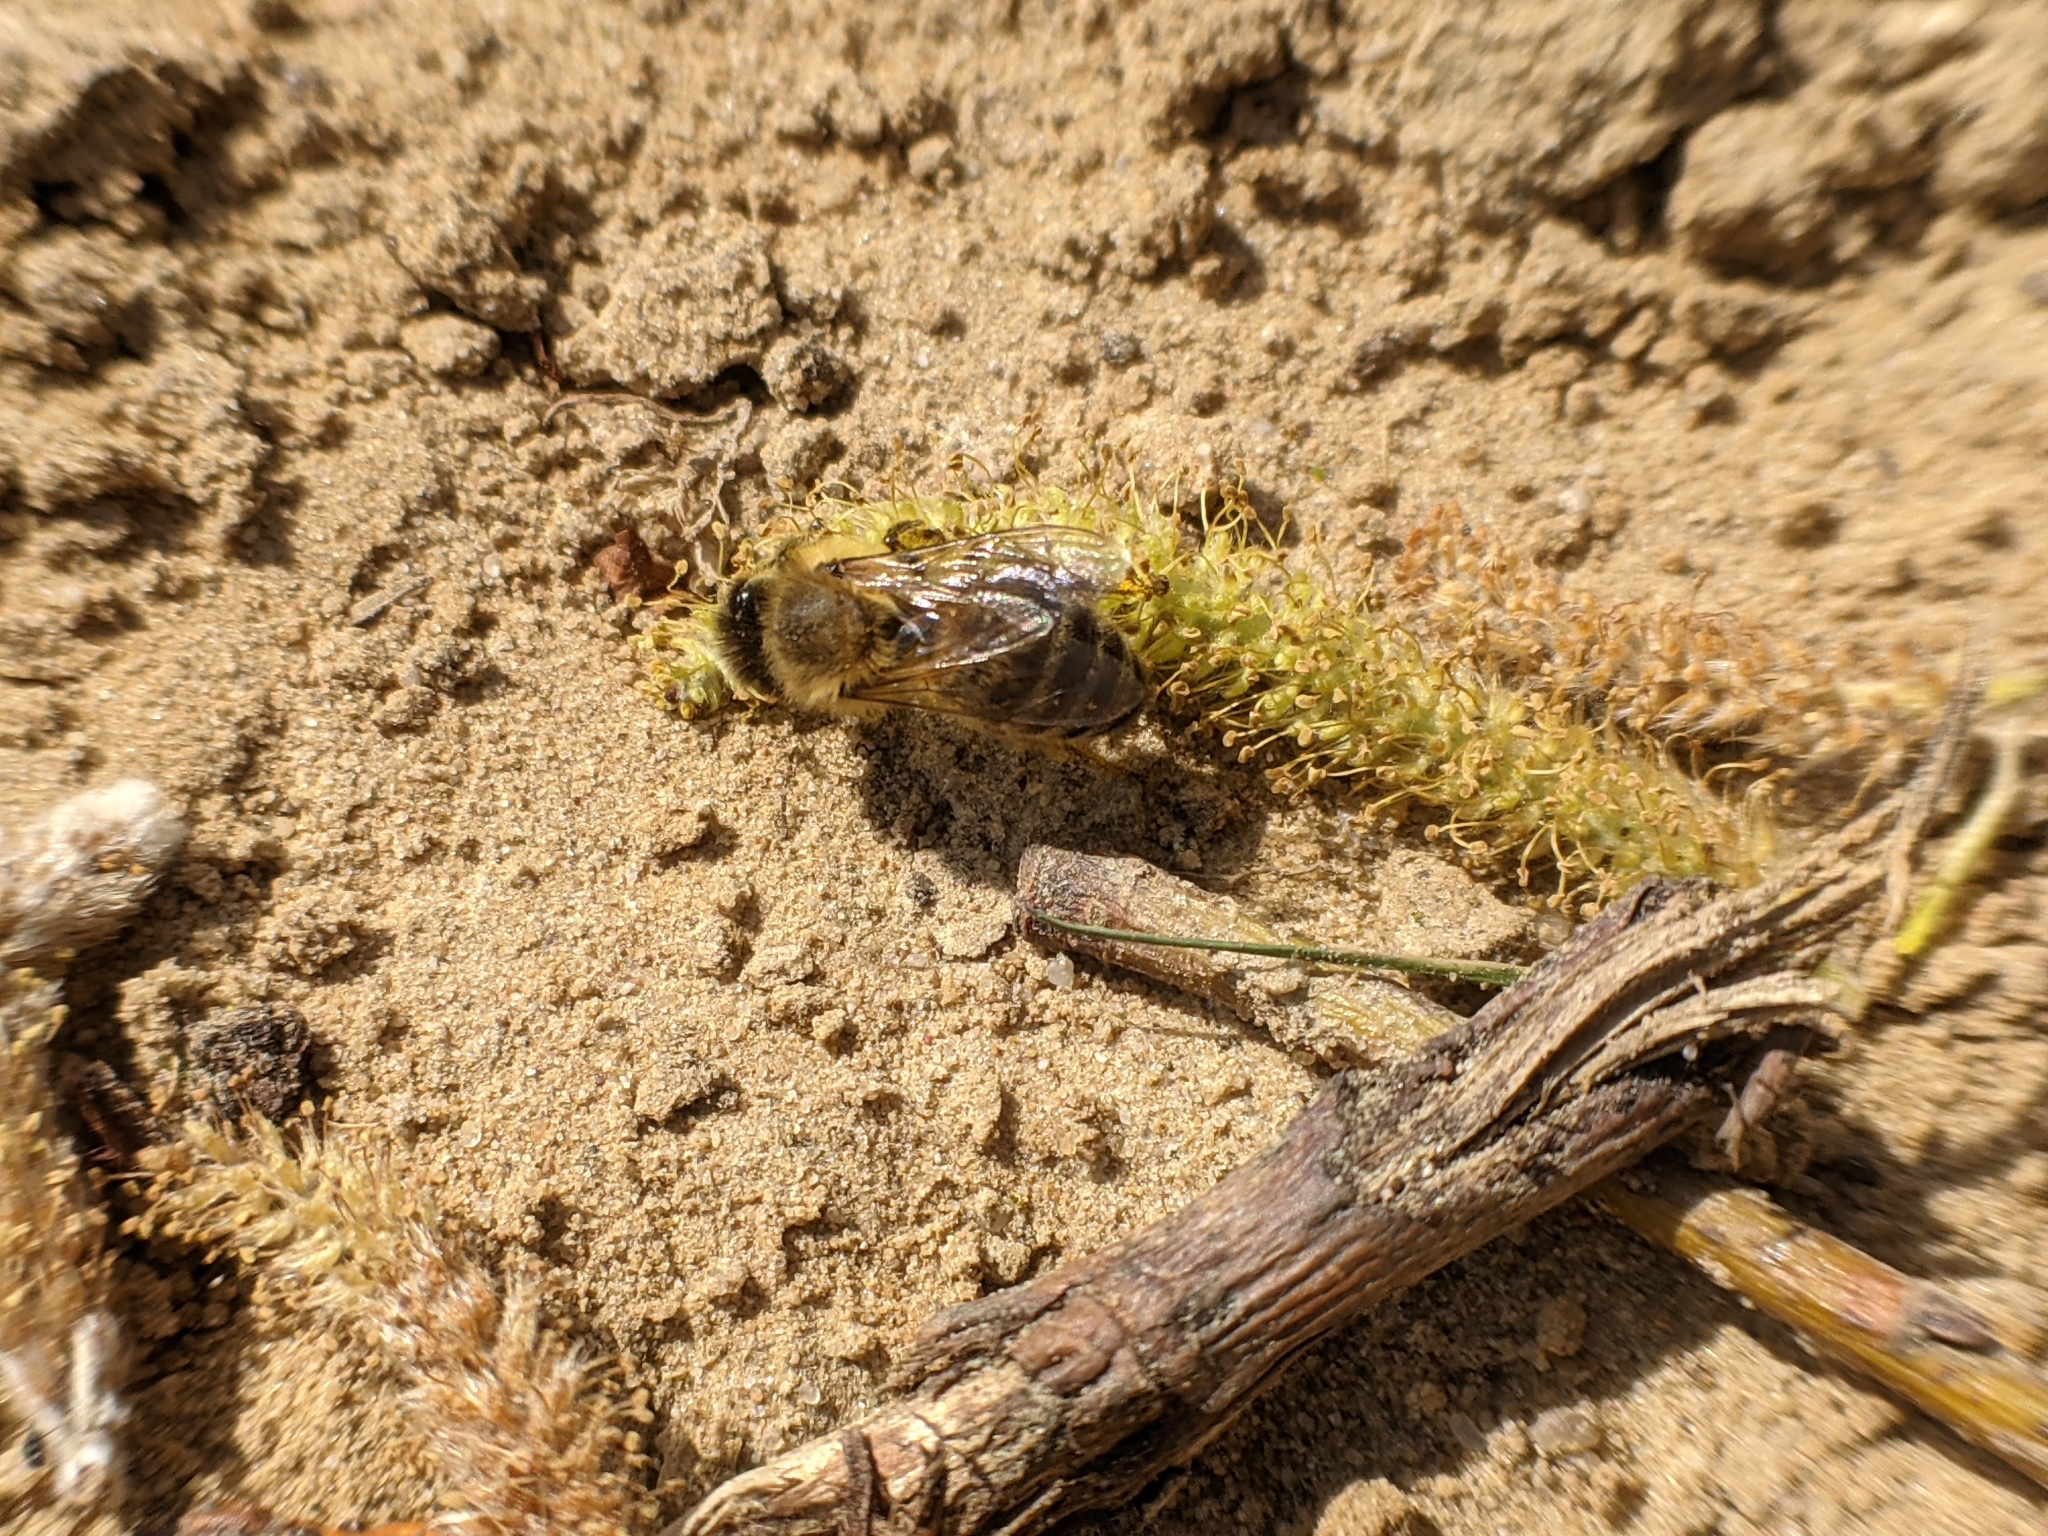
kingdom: Animalia
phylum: Arthropoda
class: Insecta
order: Hymenoptera
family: Apidae
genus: Apis
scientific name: Apis mellifera
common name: Honey bee
